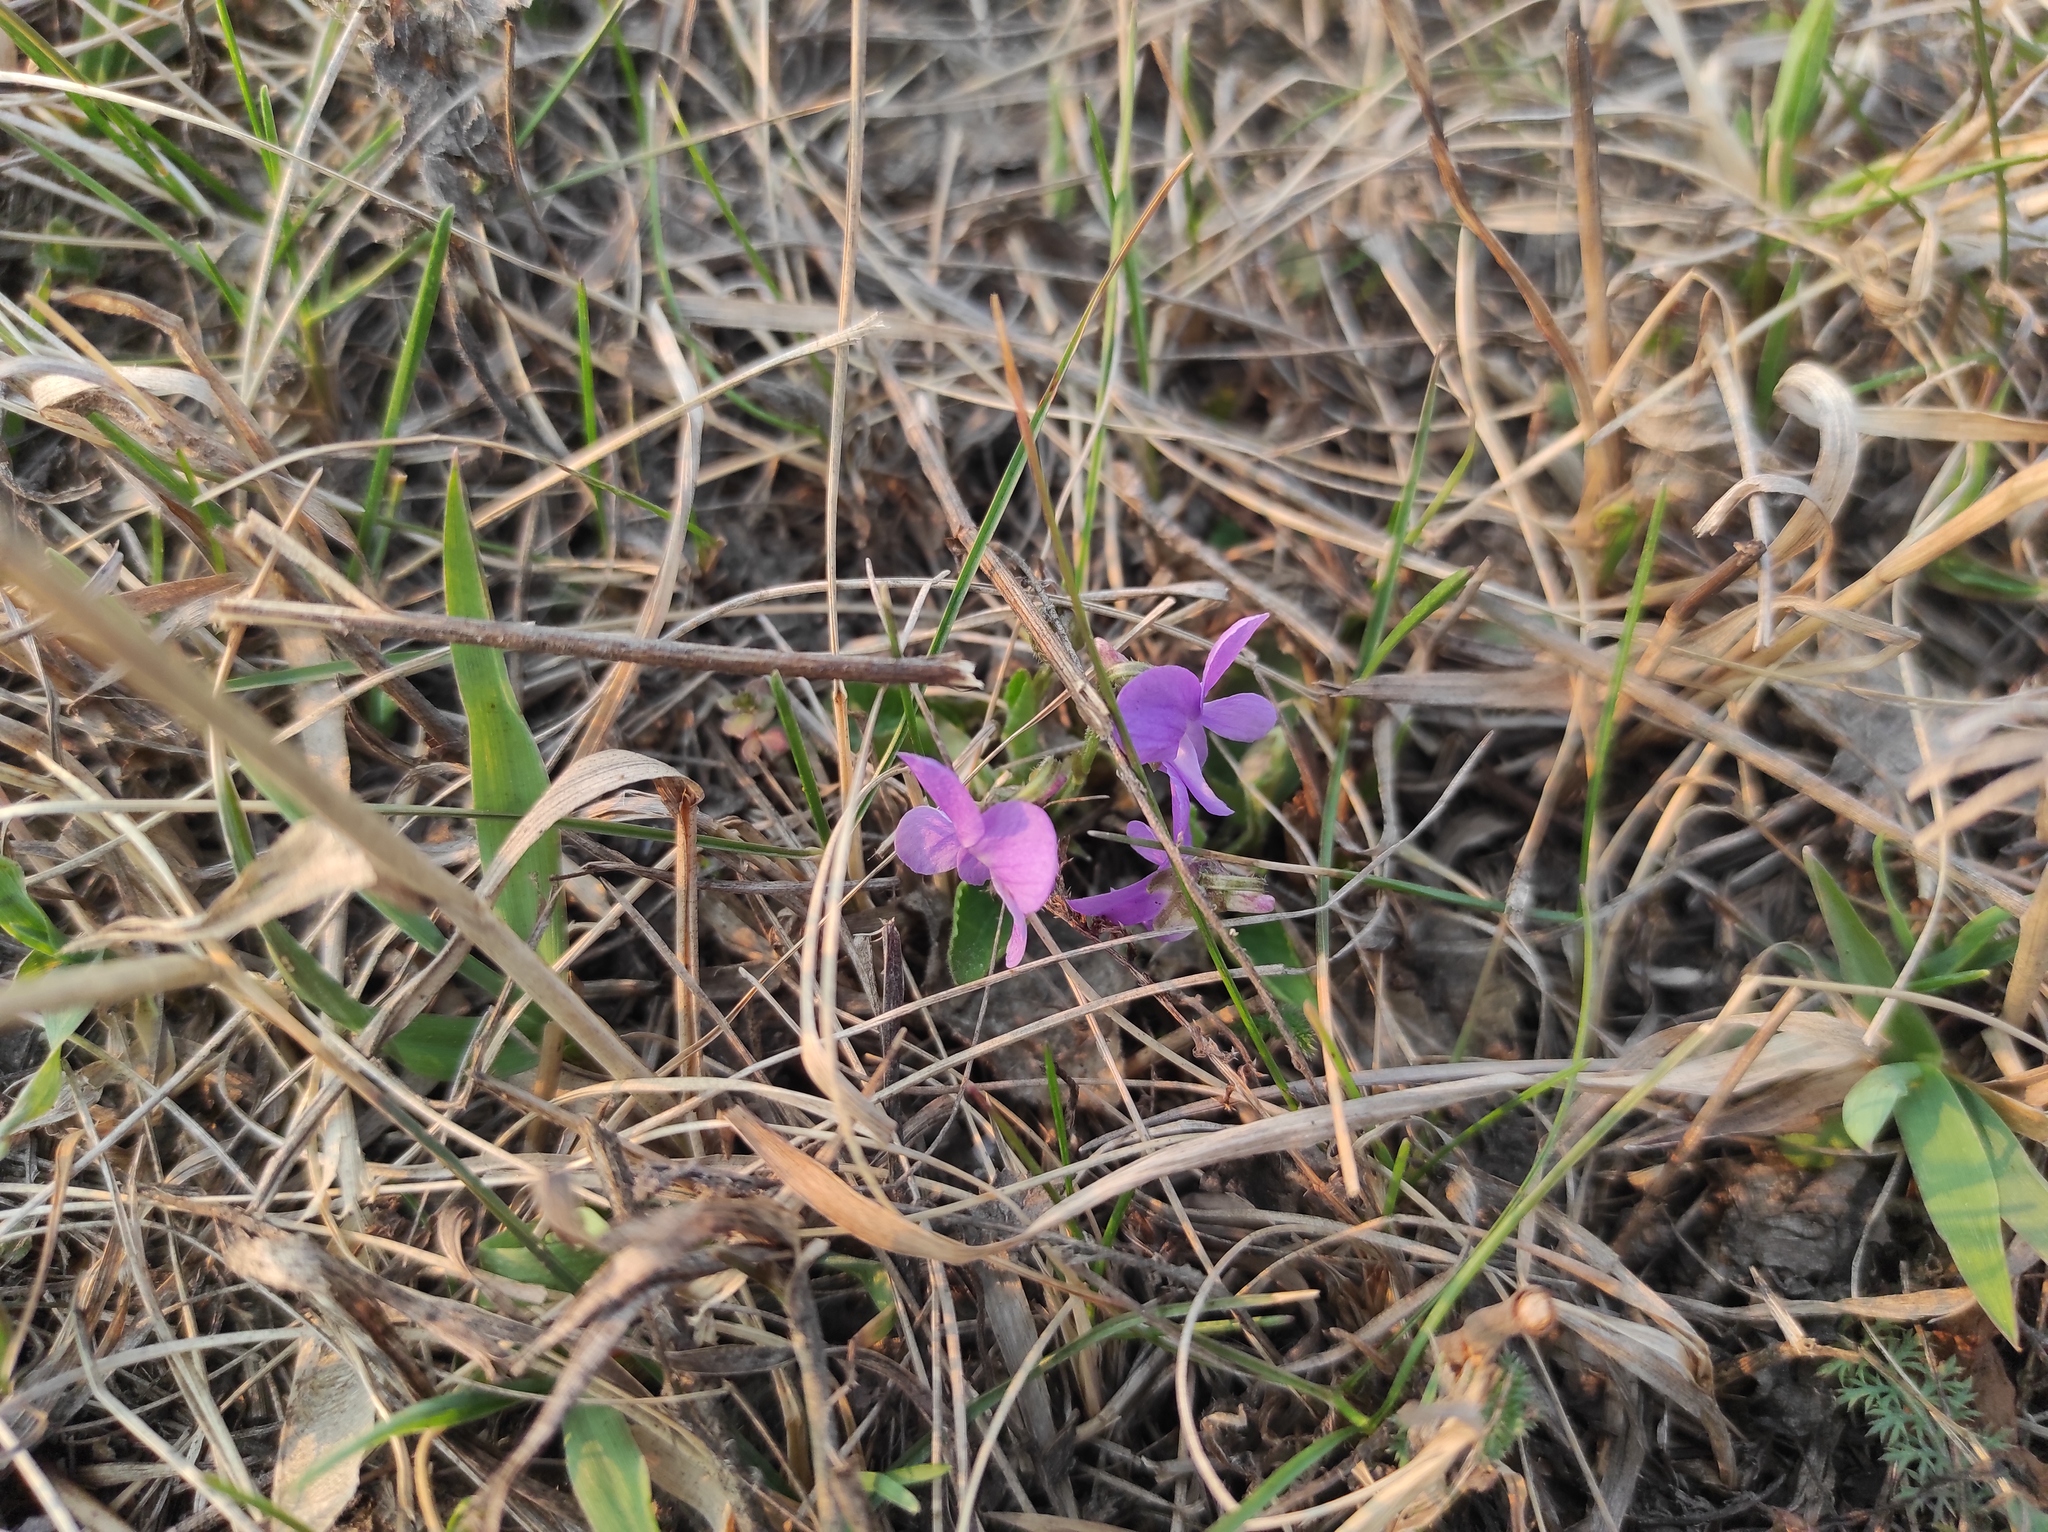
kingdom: Plantae
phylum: Tracheophyta
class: Magnoliopsida
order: Malpighiales
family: Violaceae
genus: Viola
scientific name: Viola hirta
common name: Hairy violet
